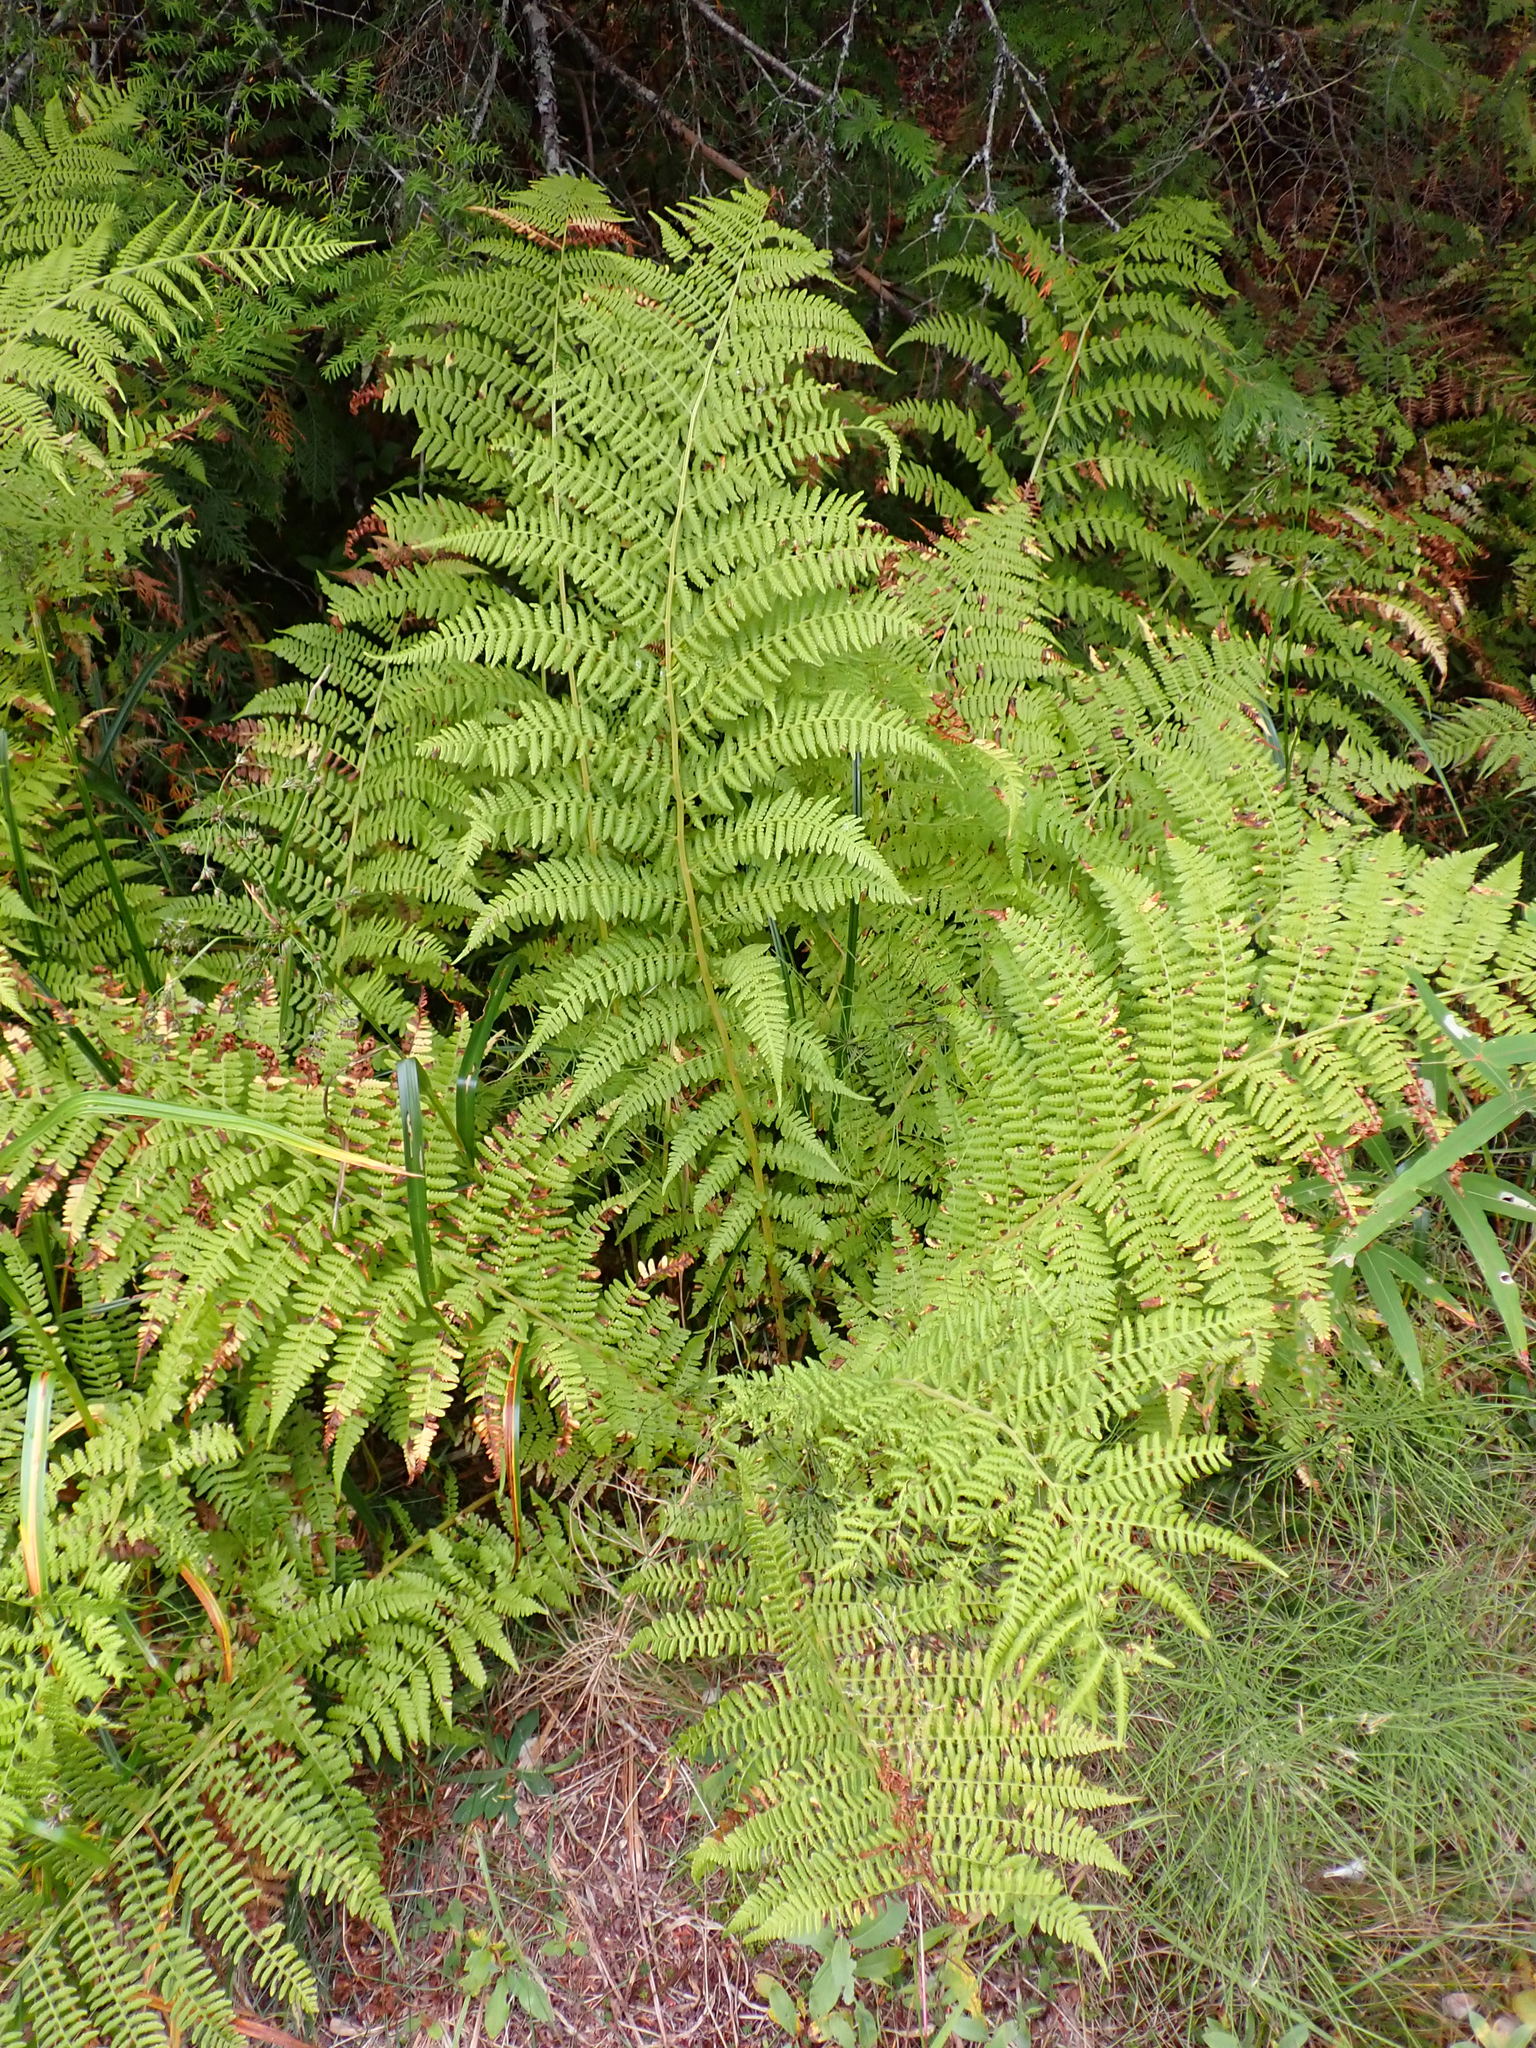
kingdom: Plantae
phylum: Tracheophyta
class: Polypodiopsida
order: Polypodiales
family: Athyriaceae
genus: Athyrium
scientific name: Athyrium filix-femina
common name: Lady fern
